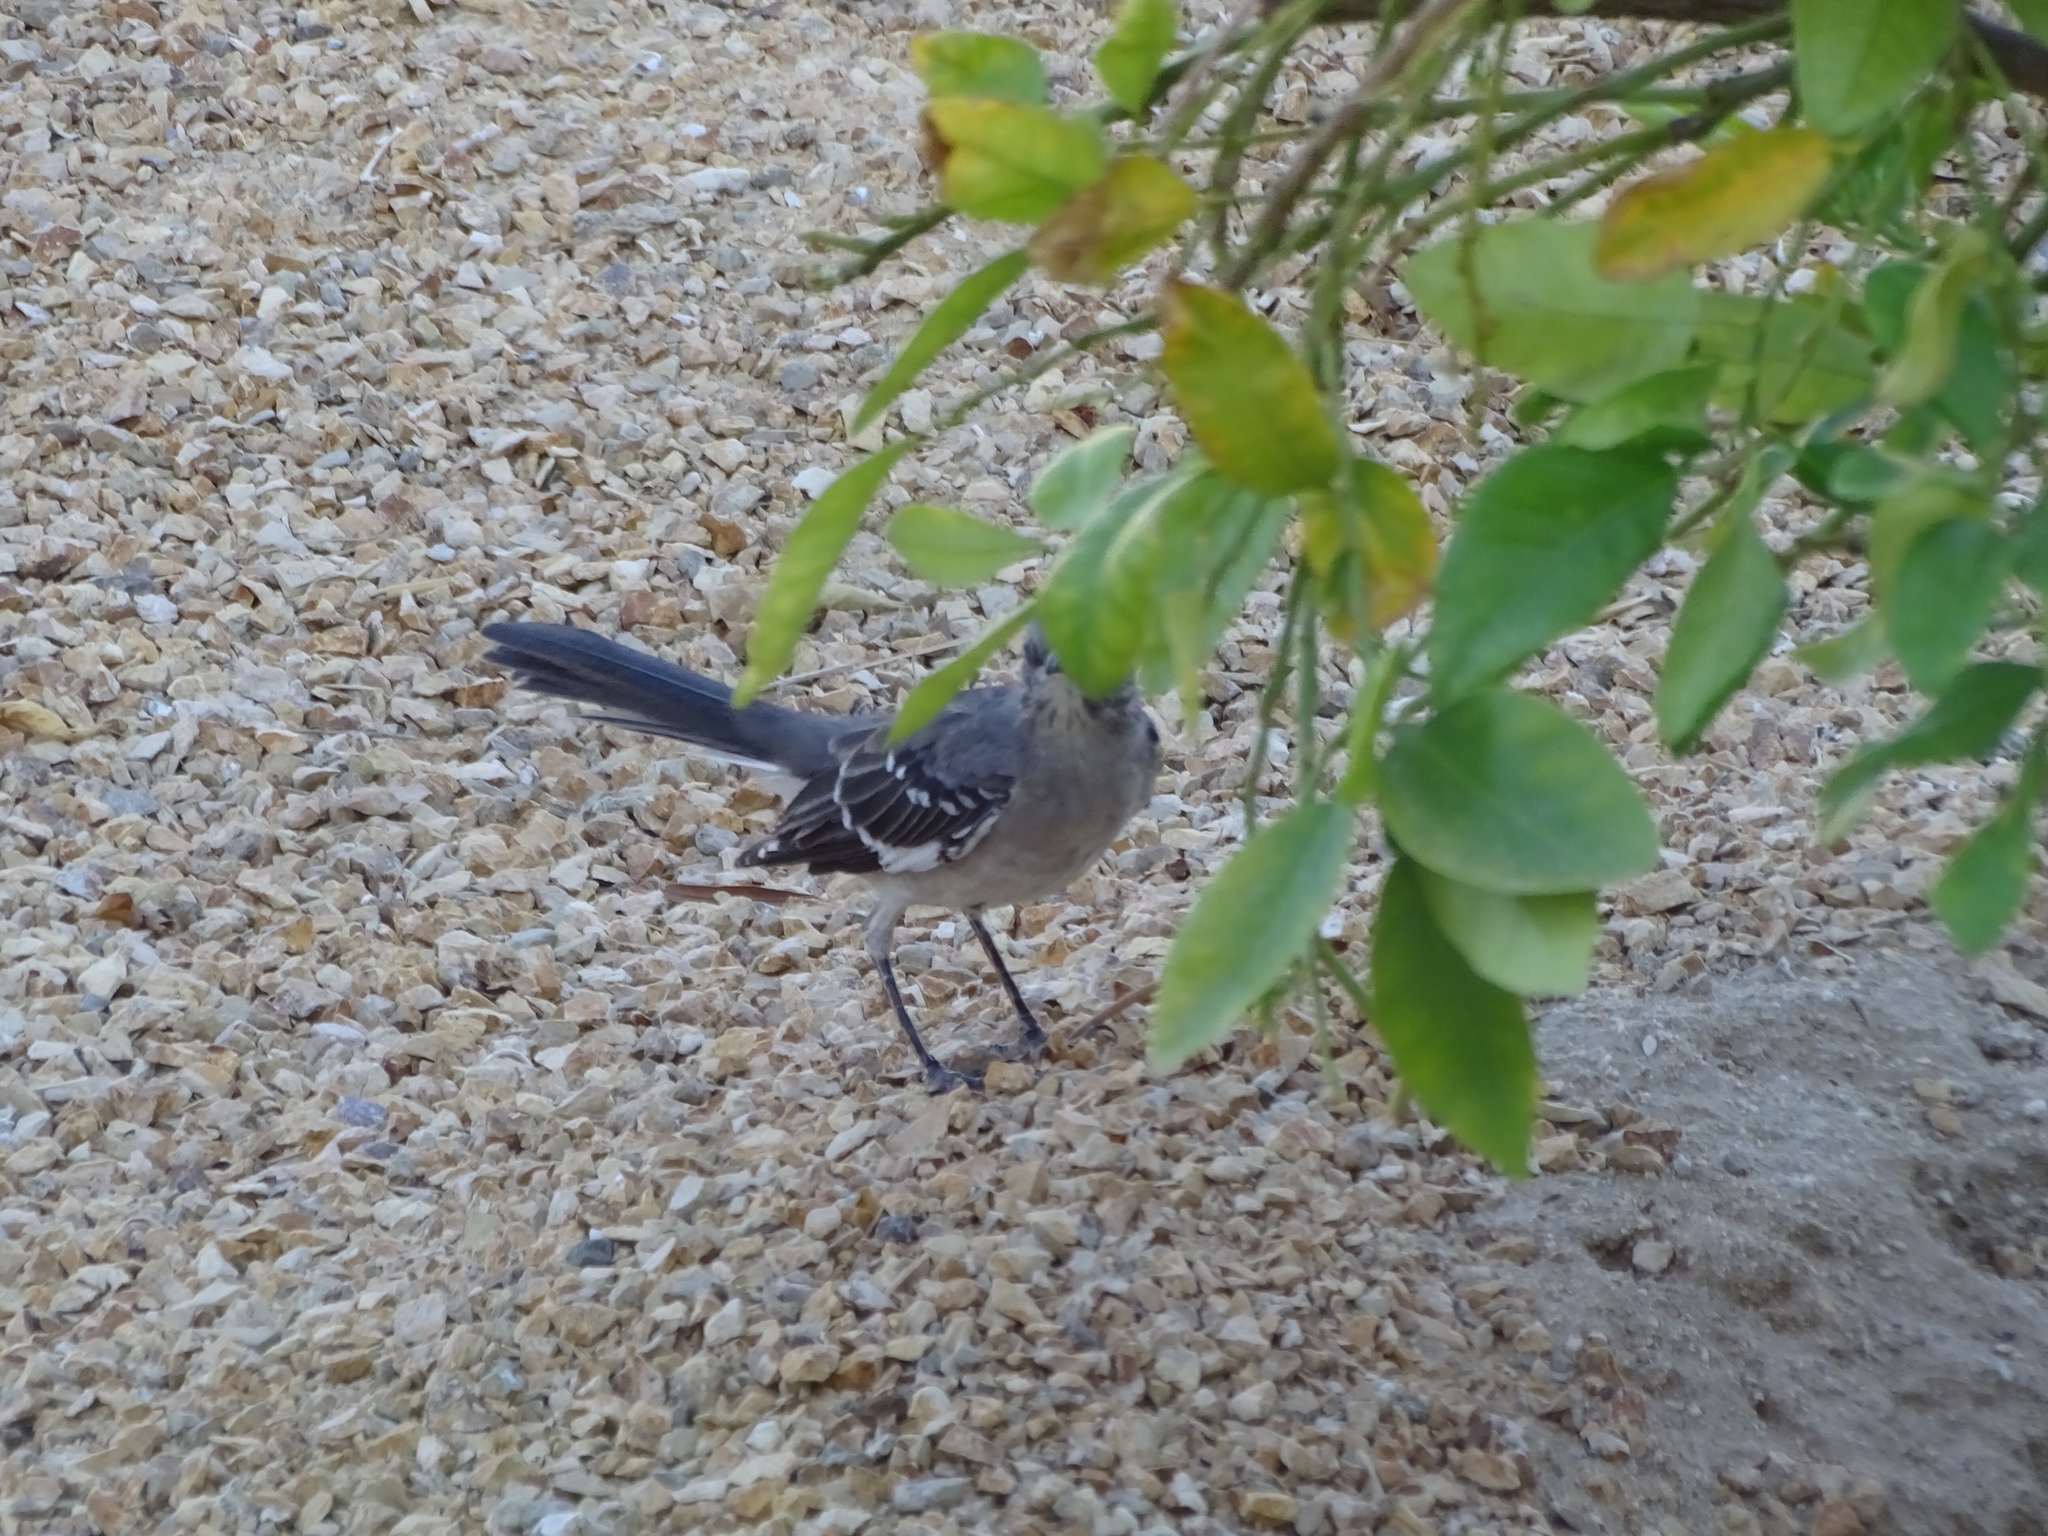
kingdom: Animalia
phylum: Chordata
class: Aves
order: Passeriformes
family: Mimidae
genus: Mimus
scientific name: Mimus polyglottos
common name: Northern mockingbird
